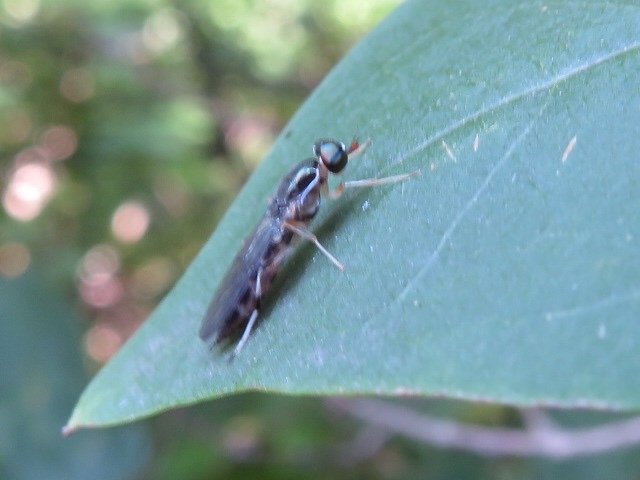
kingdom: Animalia
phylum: Arthropoda
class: Insecta
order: Diptera
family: Stratiomyidae
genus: Merosargus
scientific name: Merosargus caeruleifrons
